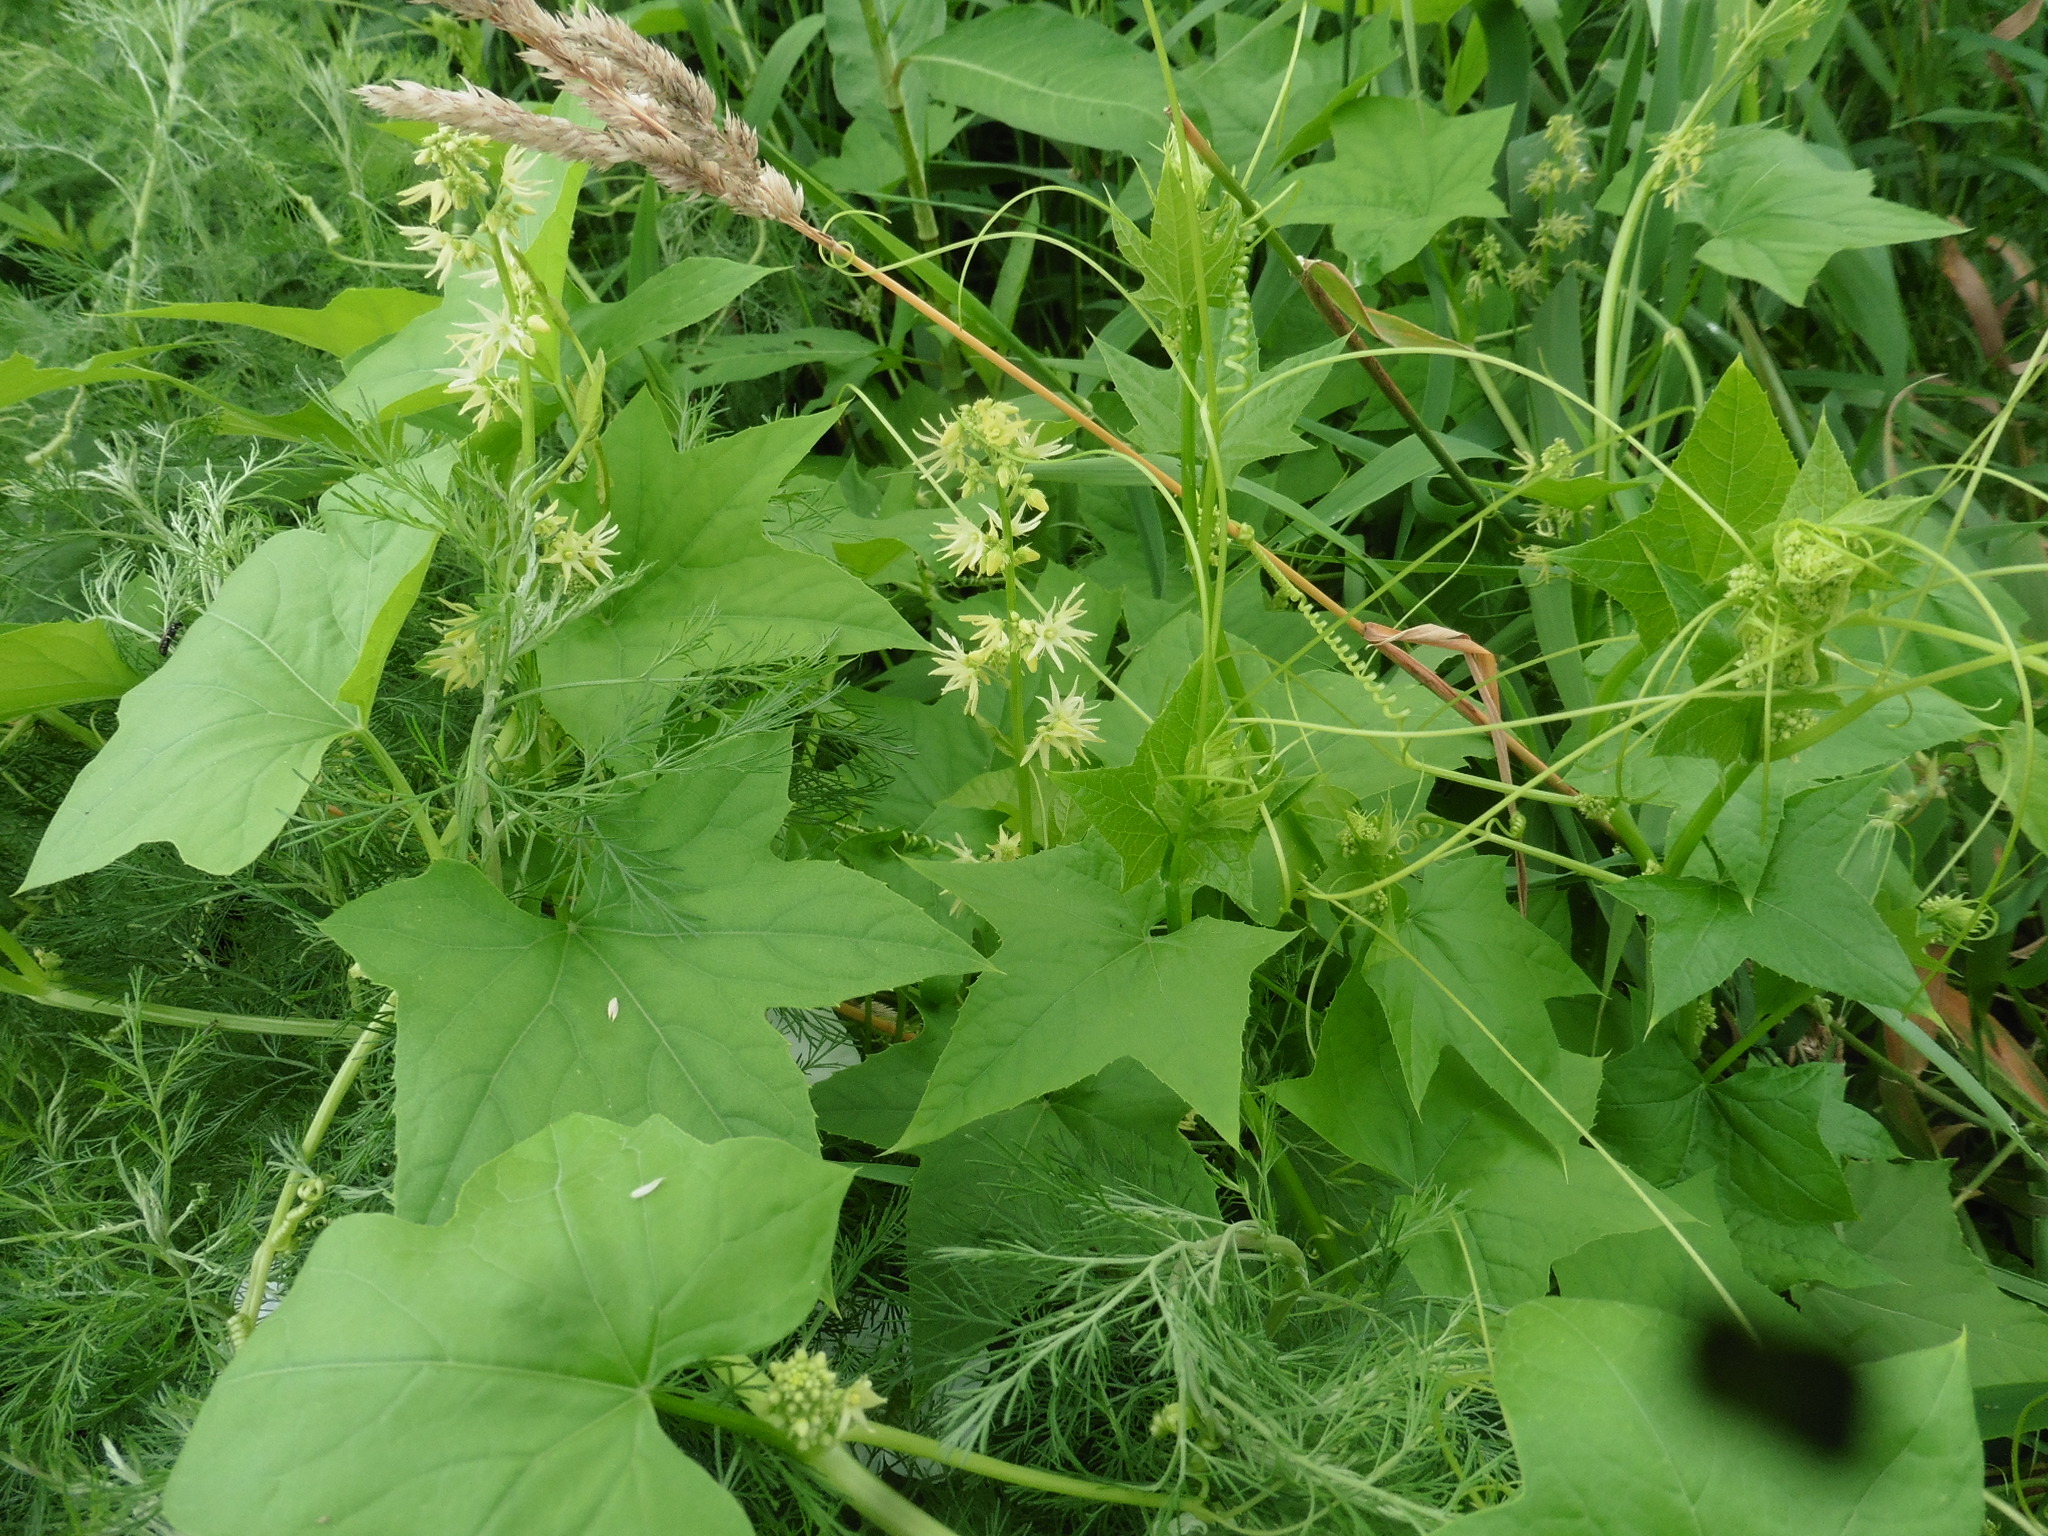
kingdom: Plantae
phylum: Tracheophyta
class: Magnoliopsida
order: Cucurbitales
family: Cucurbitaceae
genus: Echinocystis
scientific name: Echinocystis lobata
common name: Wild cucumber
